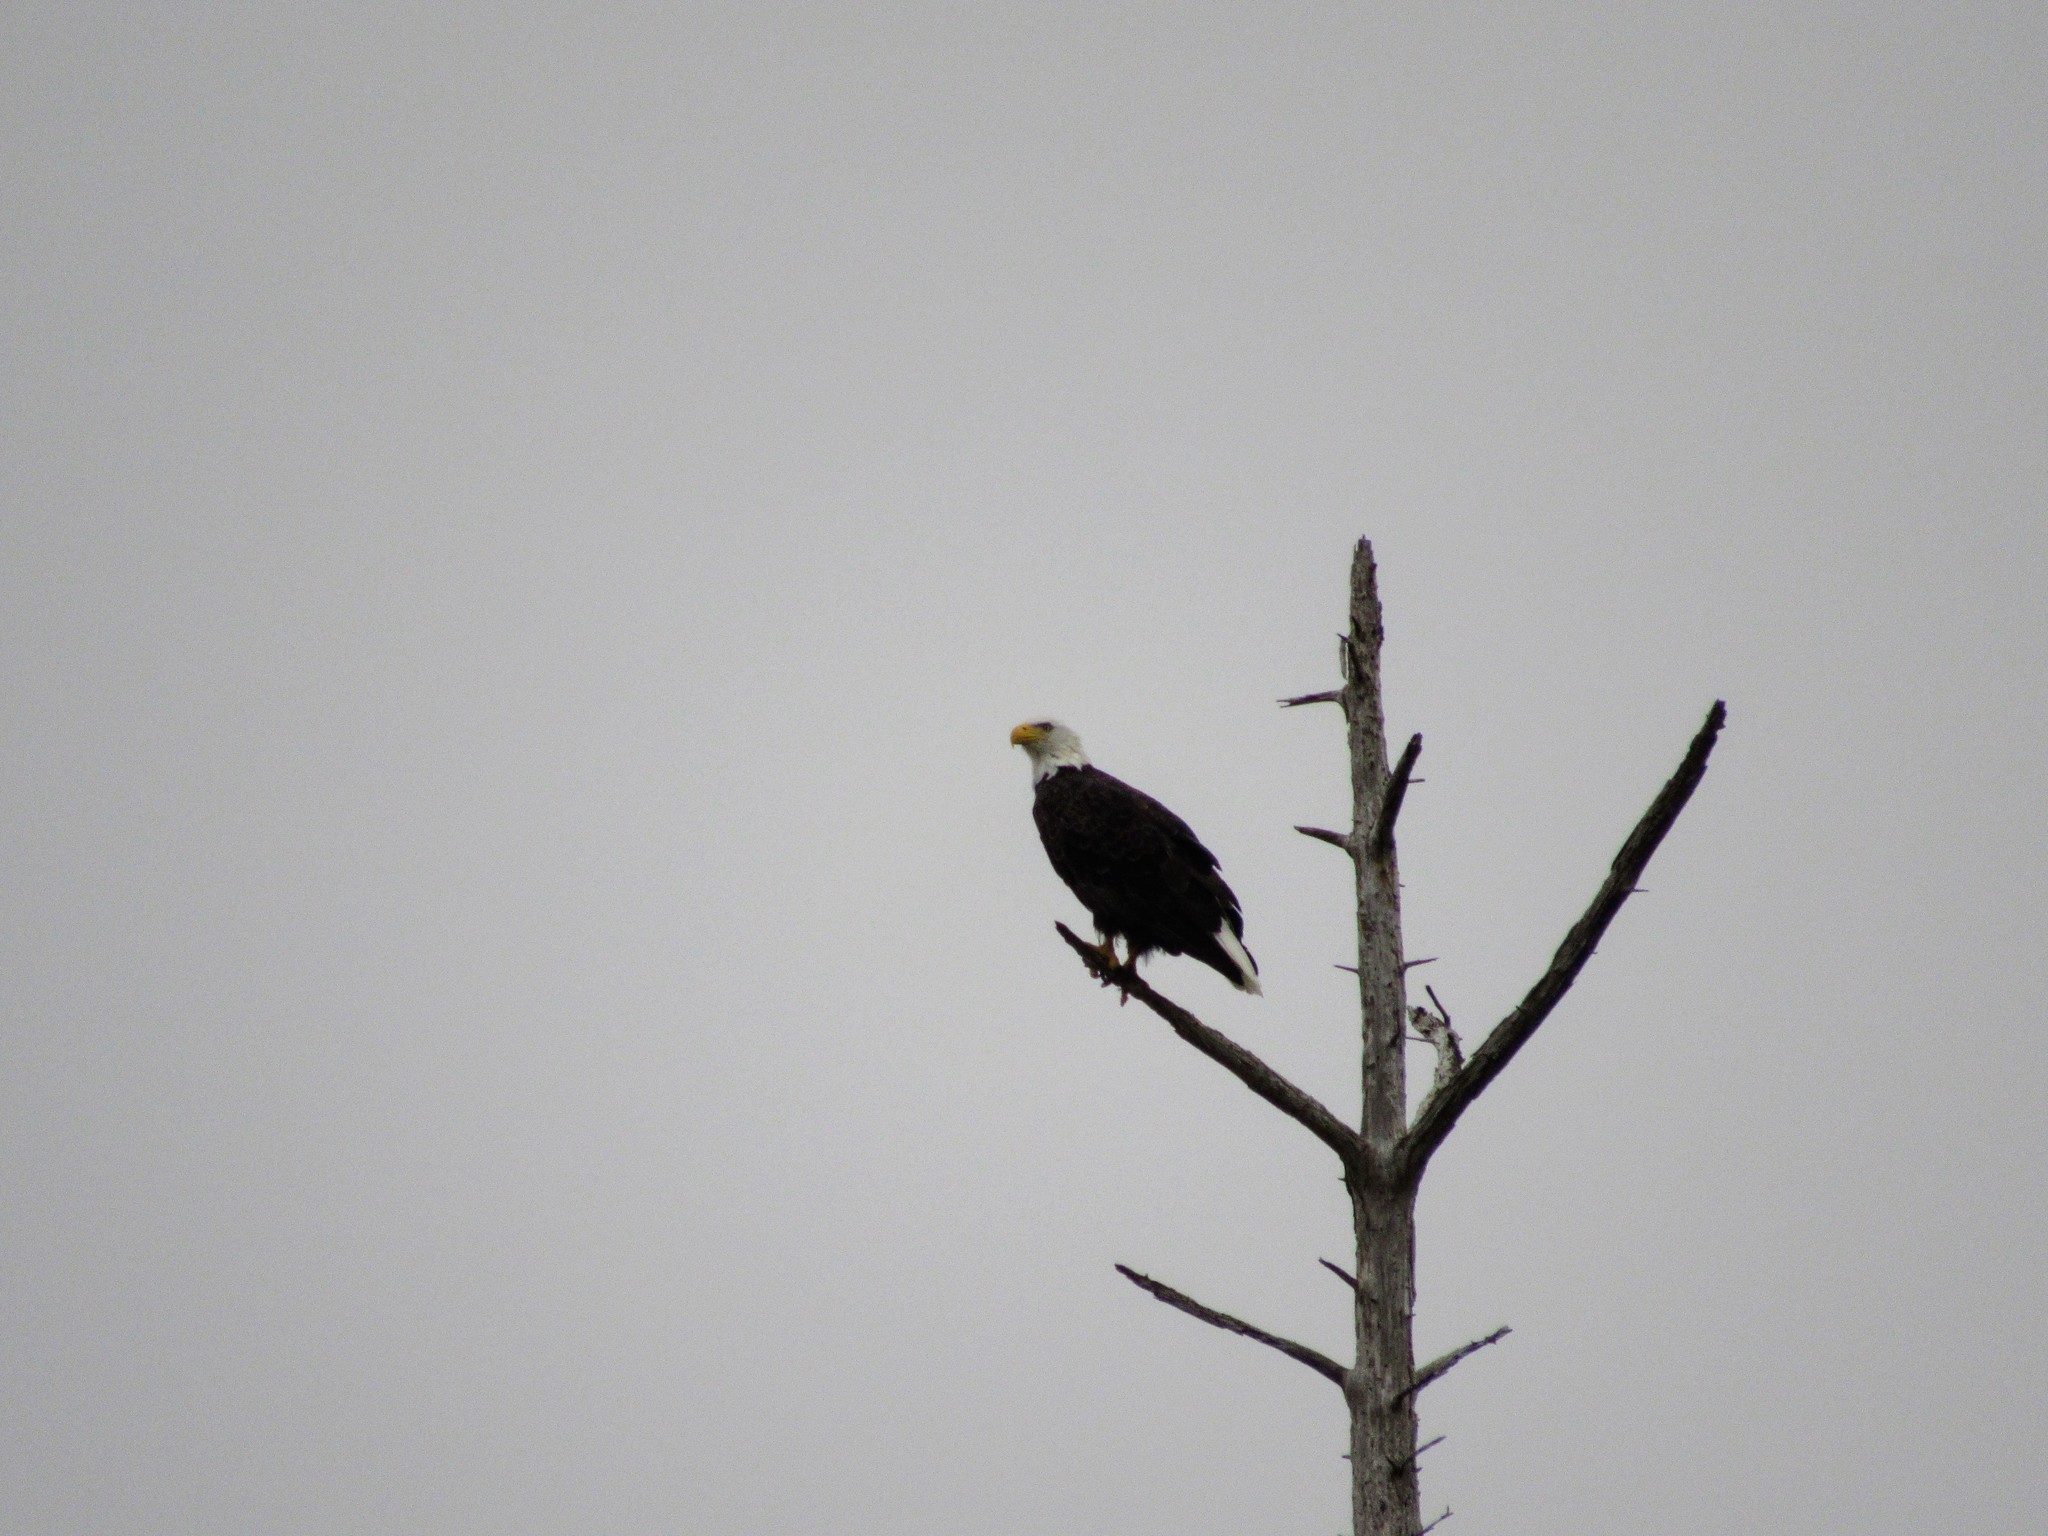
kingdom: Animalia
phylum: Chordata
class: Aves
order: Accipitriformes
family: Accipitridae
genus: Haliaeetus
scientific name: Haliaeetus leucocephalus
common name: Bald eagle
